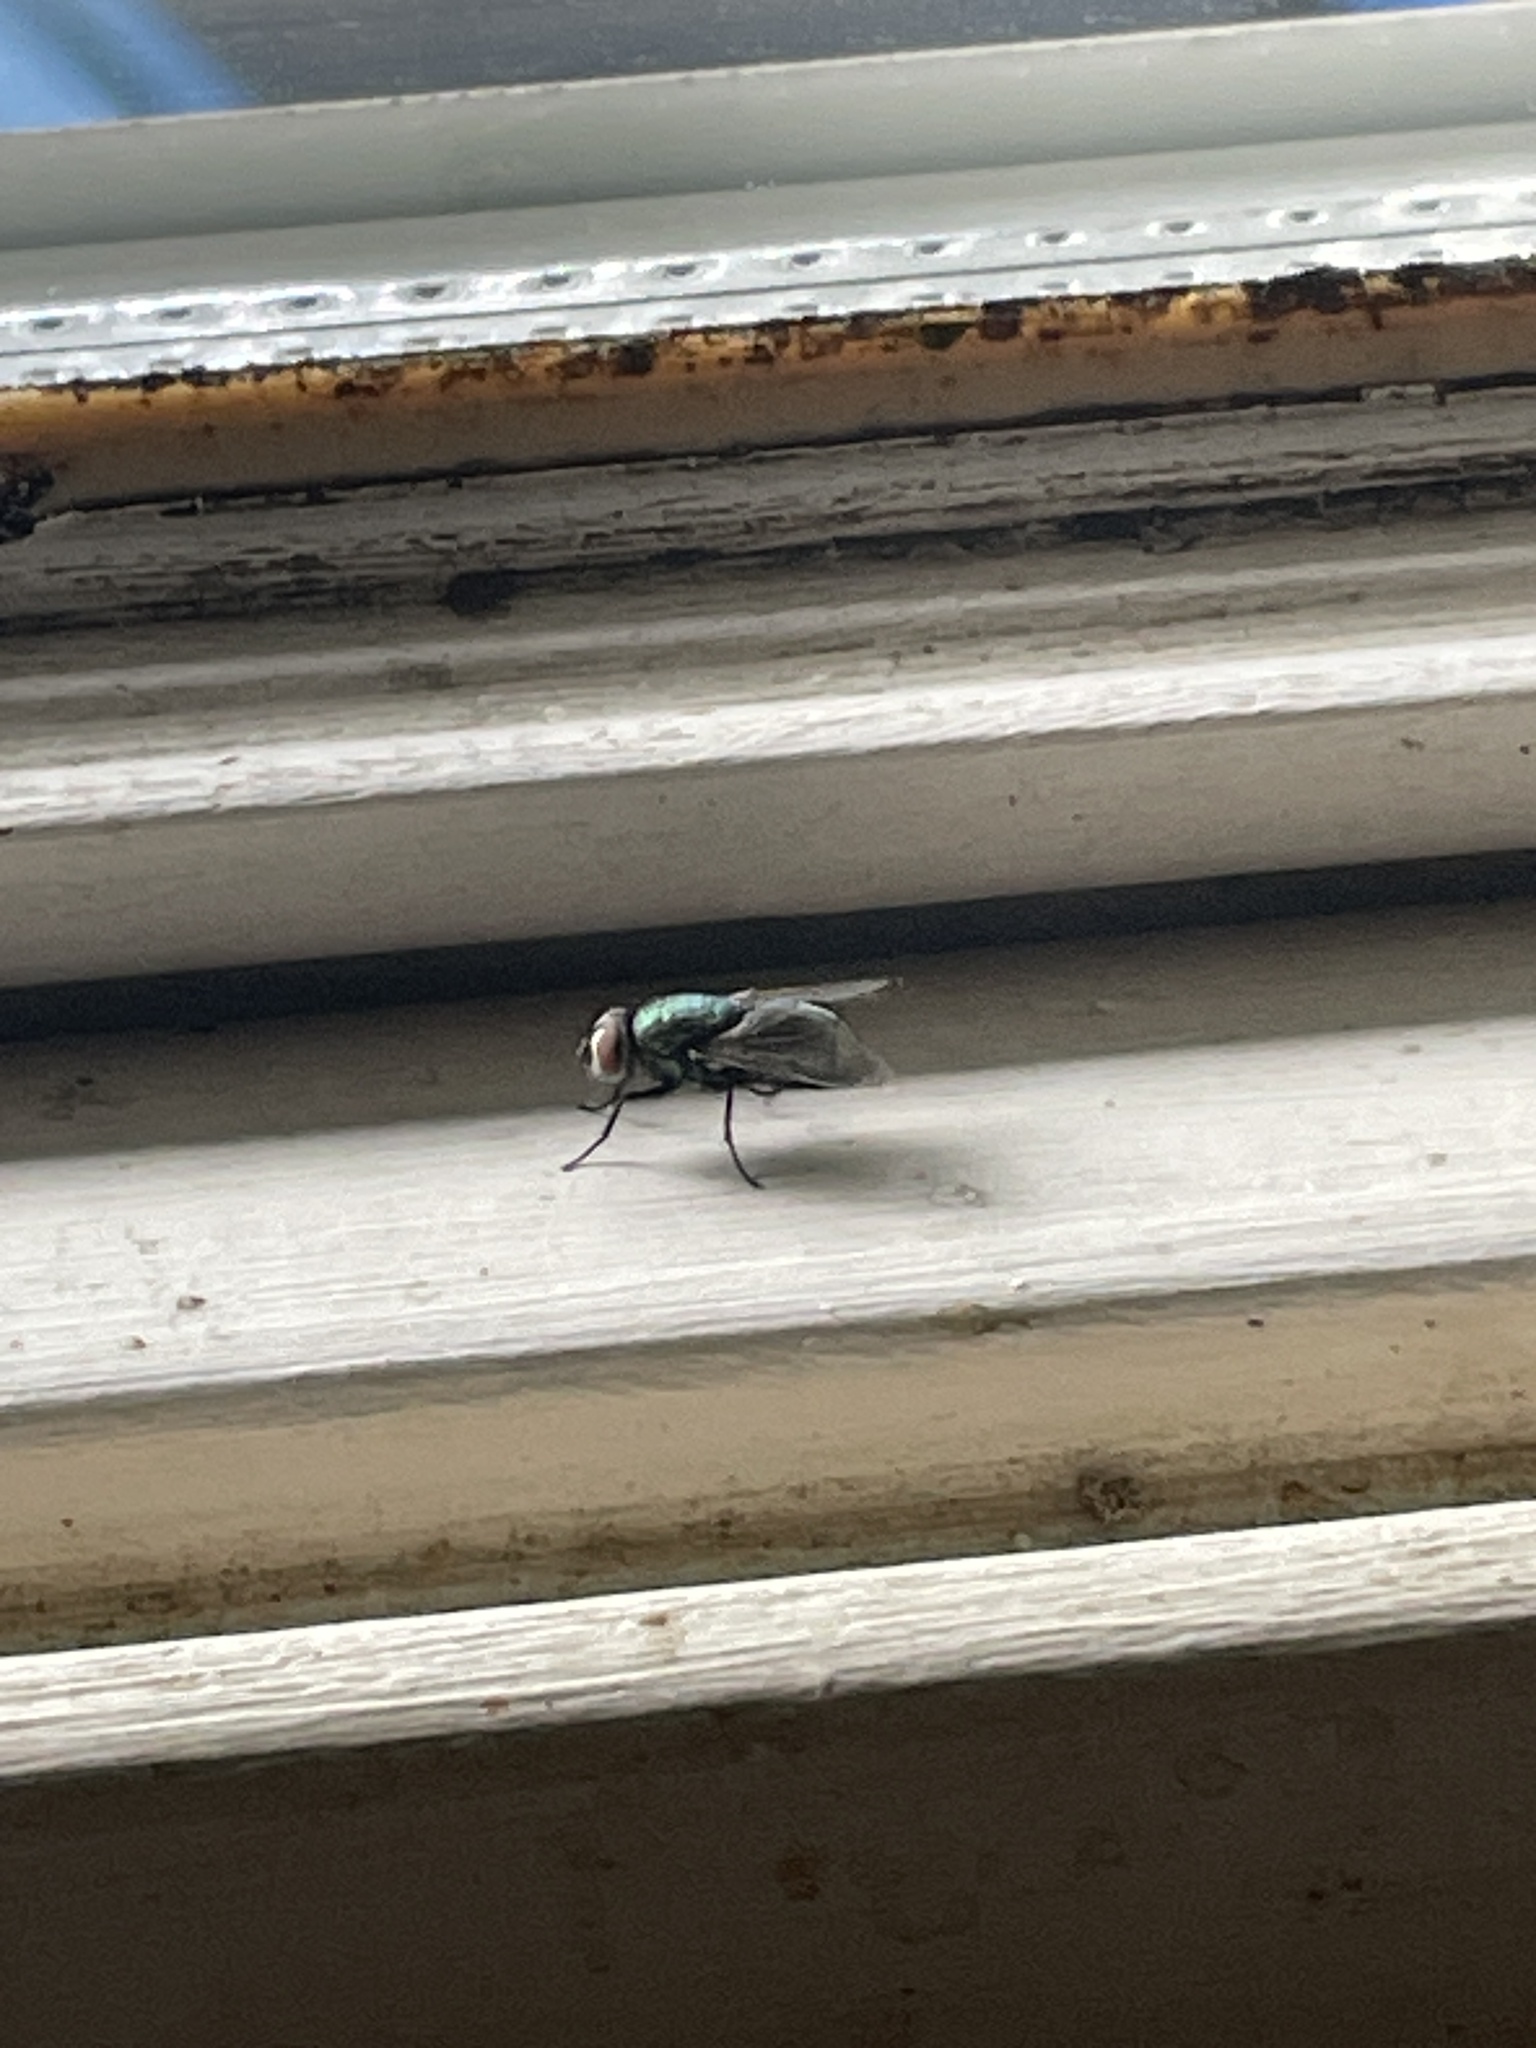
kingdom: Animalia
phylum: Arthropoda
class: Insecta
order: Diptera
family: Calliphoridae
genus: Lucilia
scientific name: Lucilia sericata
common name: Blow fly
